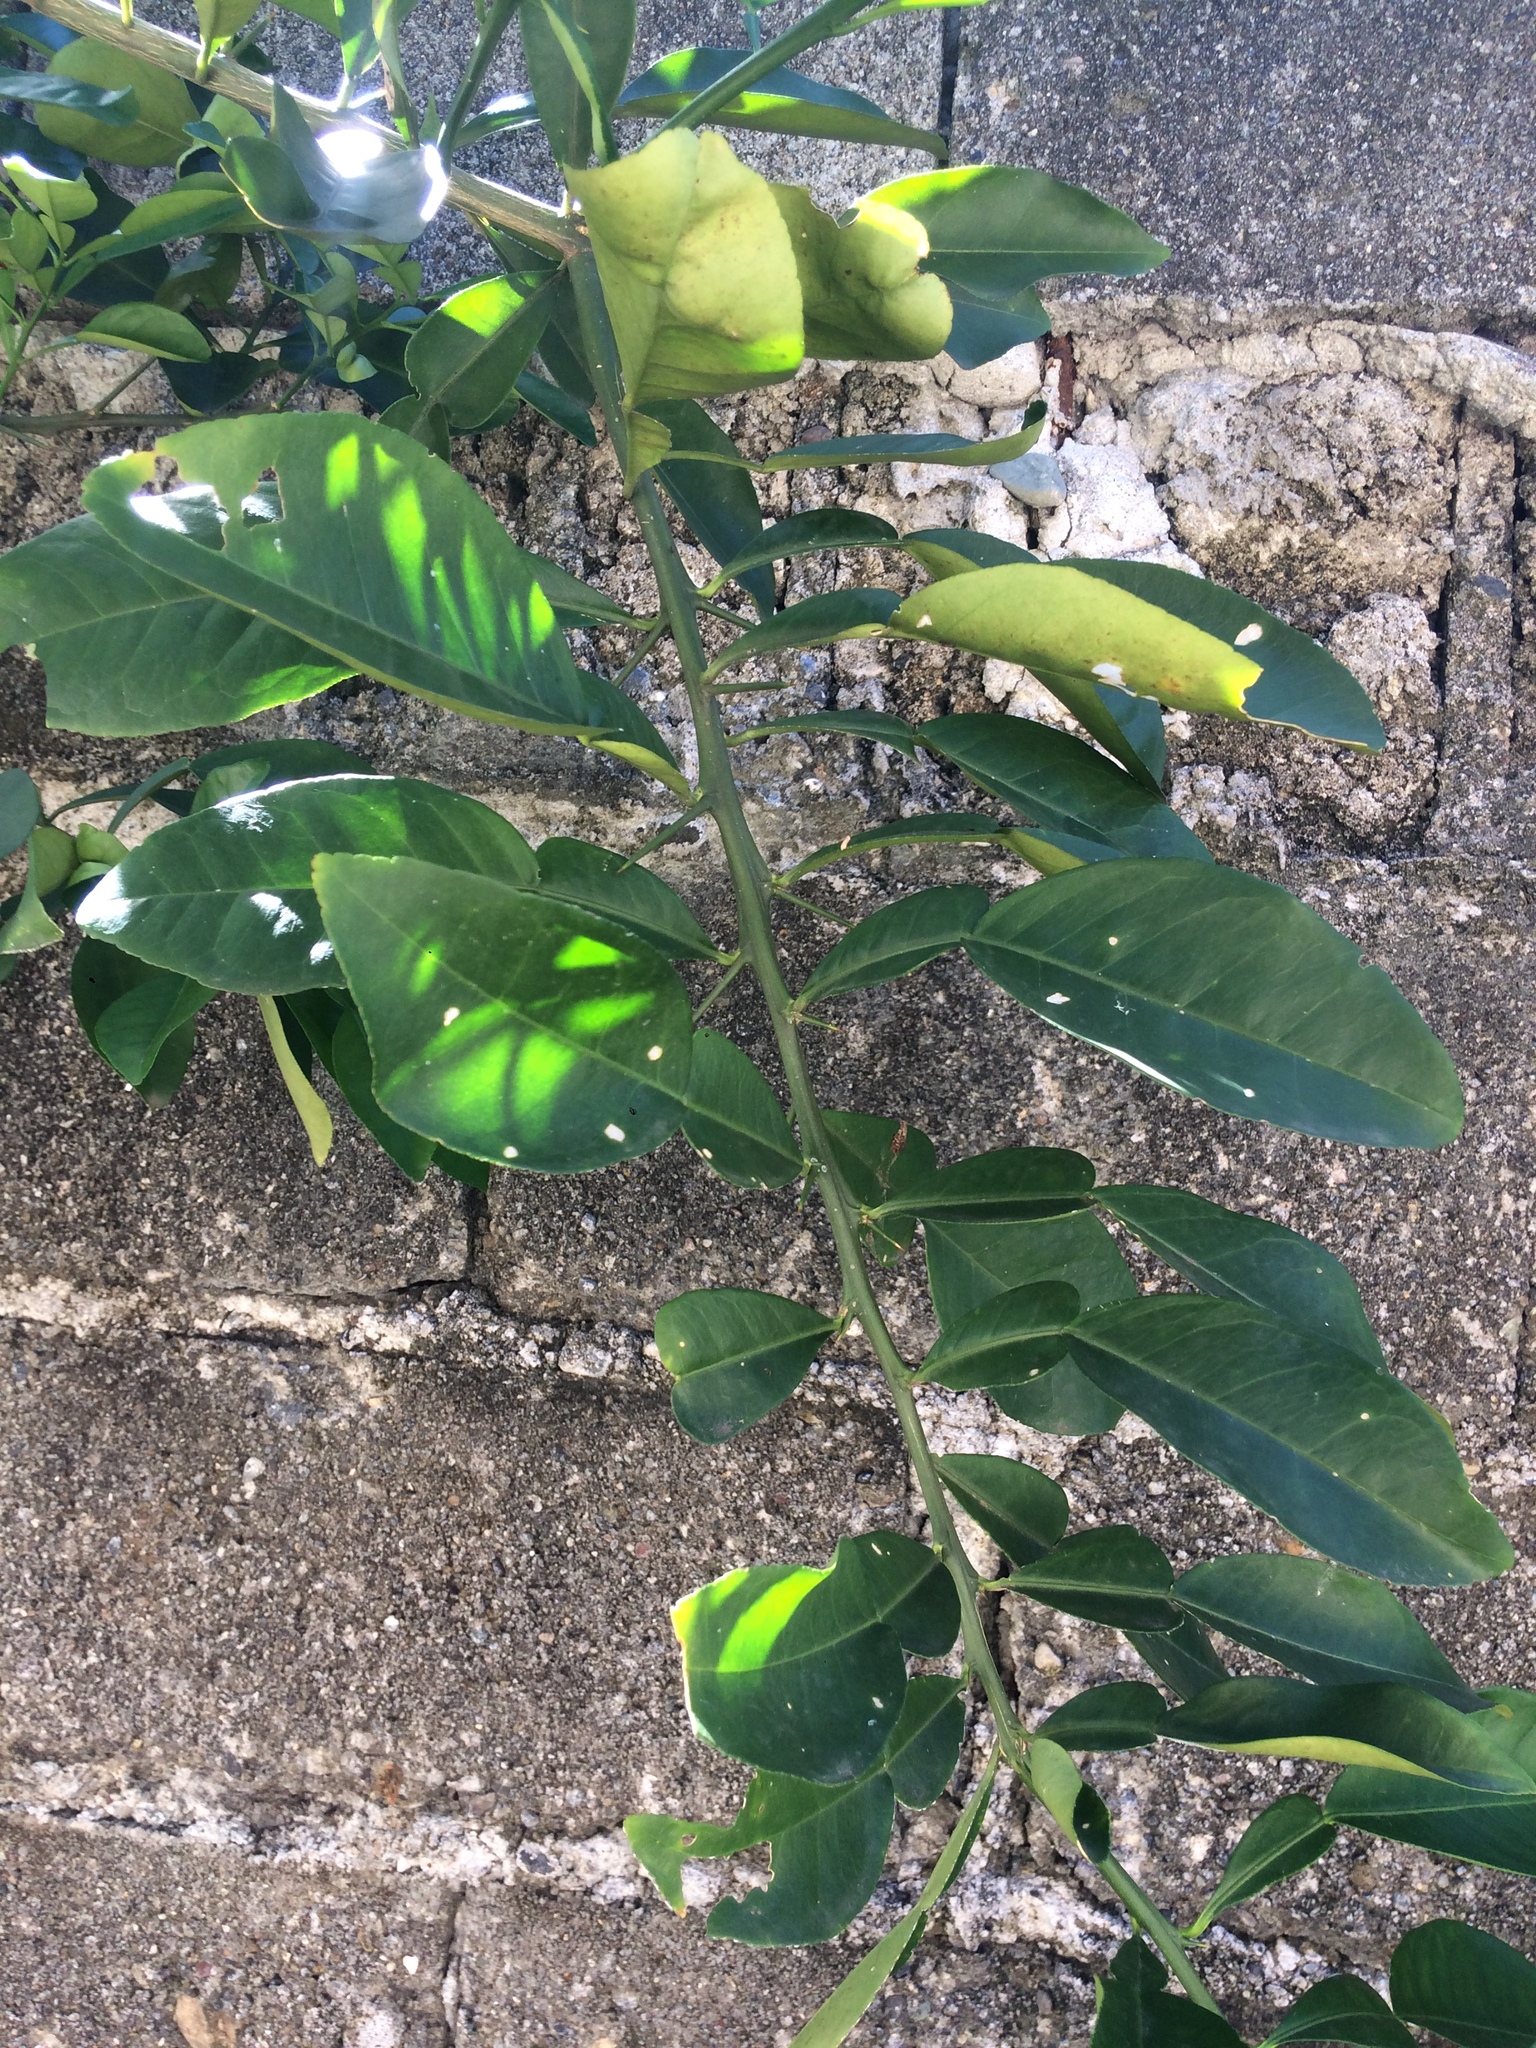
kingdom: Plantae
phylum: Tracheophyta
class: Magnoliopsida
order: Sapindales
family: Rutaceae
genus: Citrus
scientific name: Citrus maxima
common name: Pomelo
